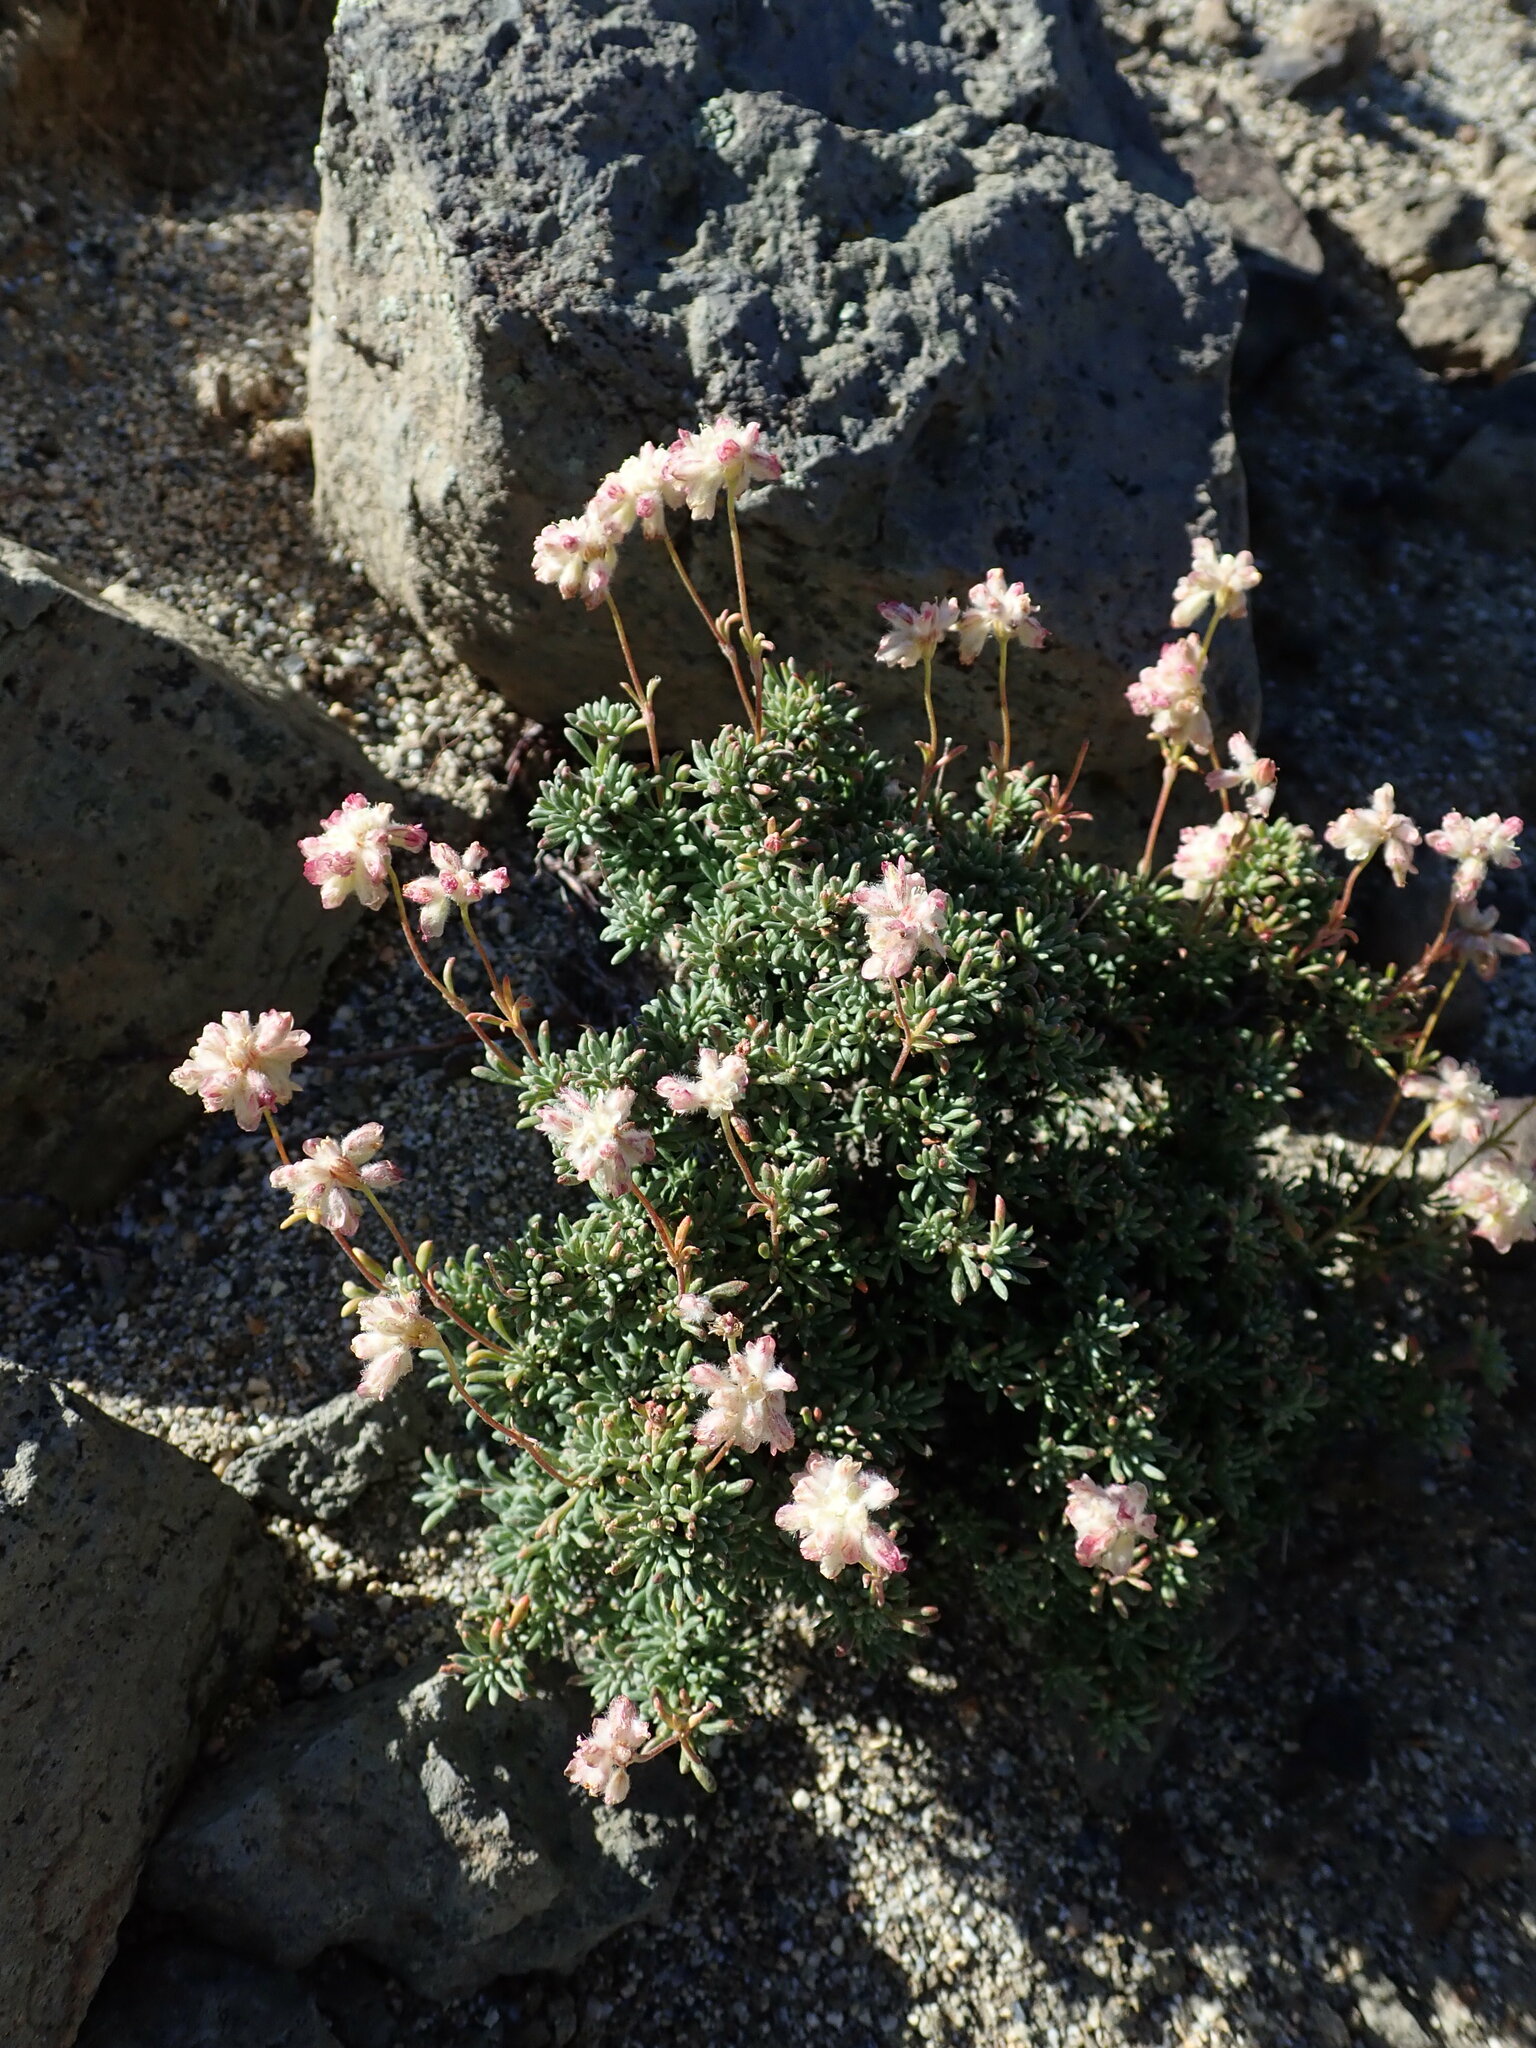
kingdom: Plantae
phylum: Tracheophyta
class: Magnoliopsida
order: Caryophyllales
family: Polygonaceae
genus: Eriogonum
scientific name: Eriogonum thymoides
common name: Thyme-leaf wild buckwheat
